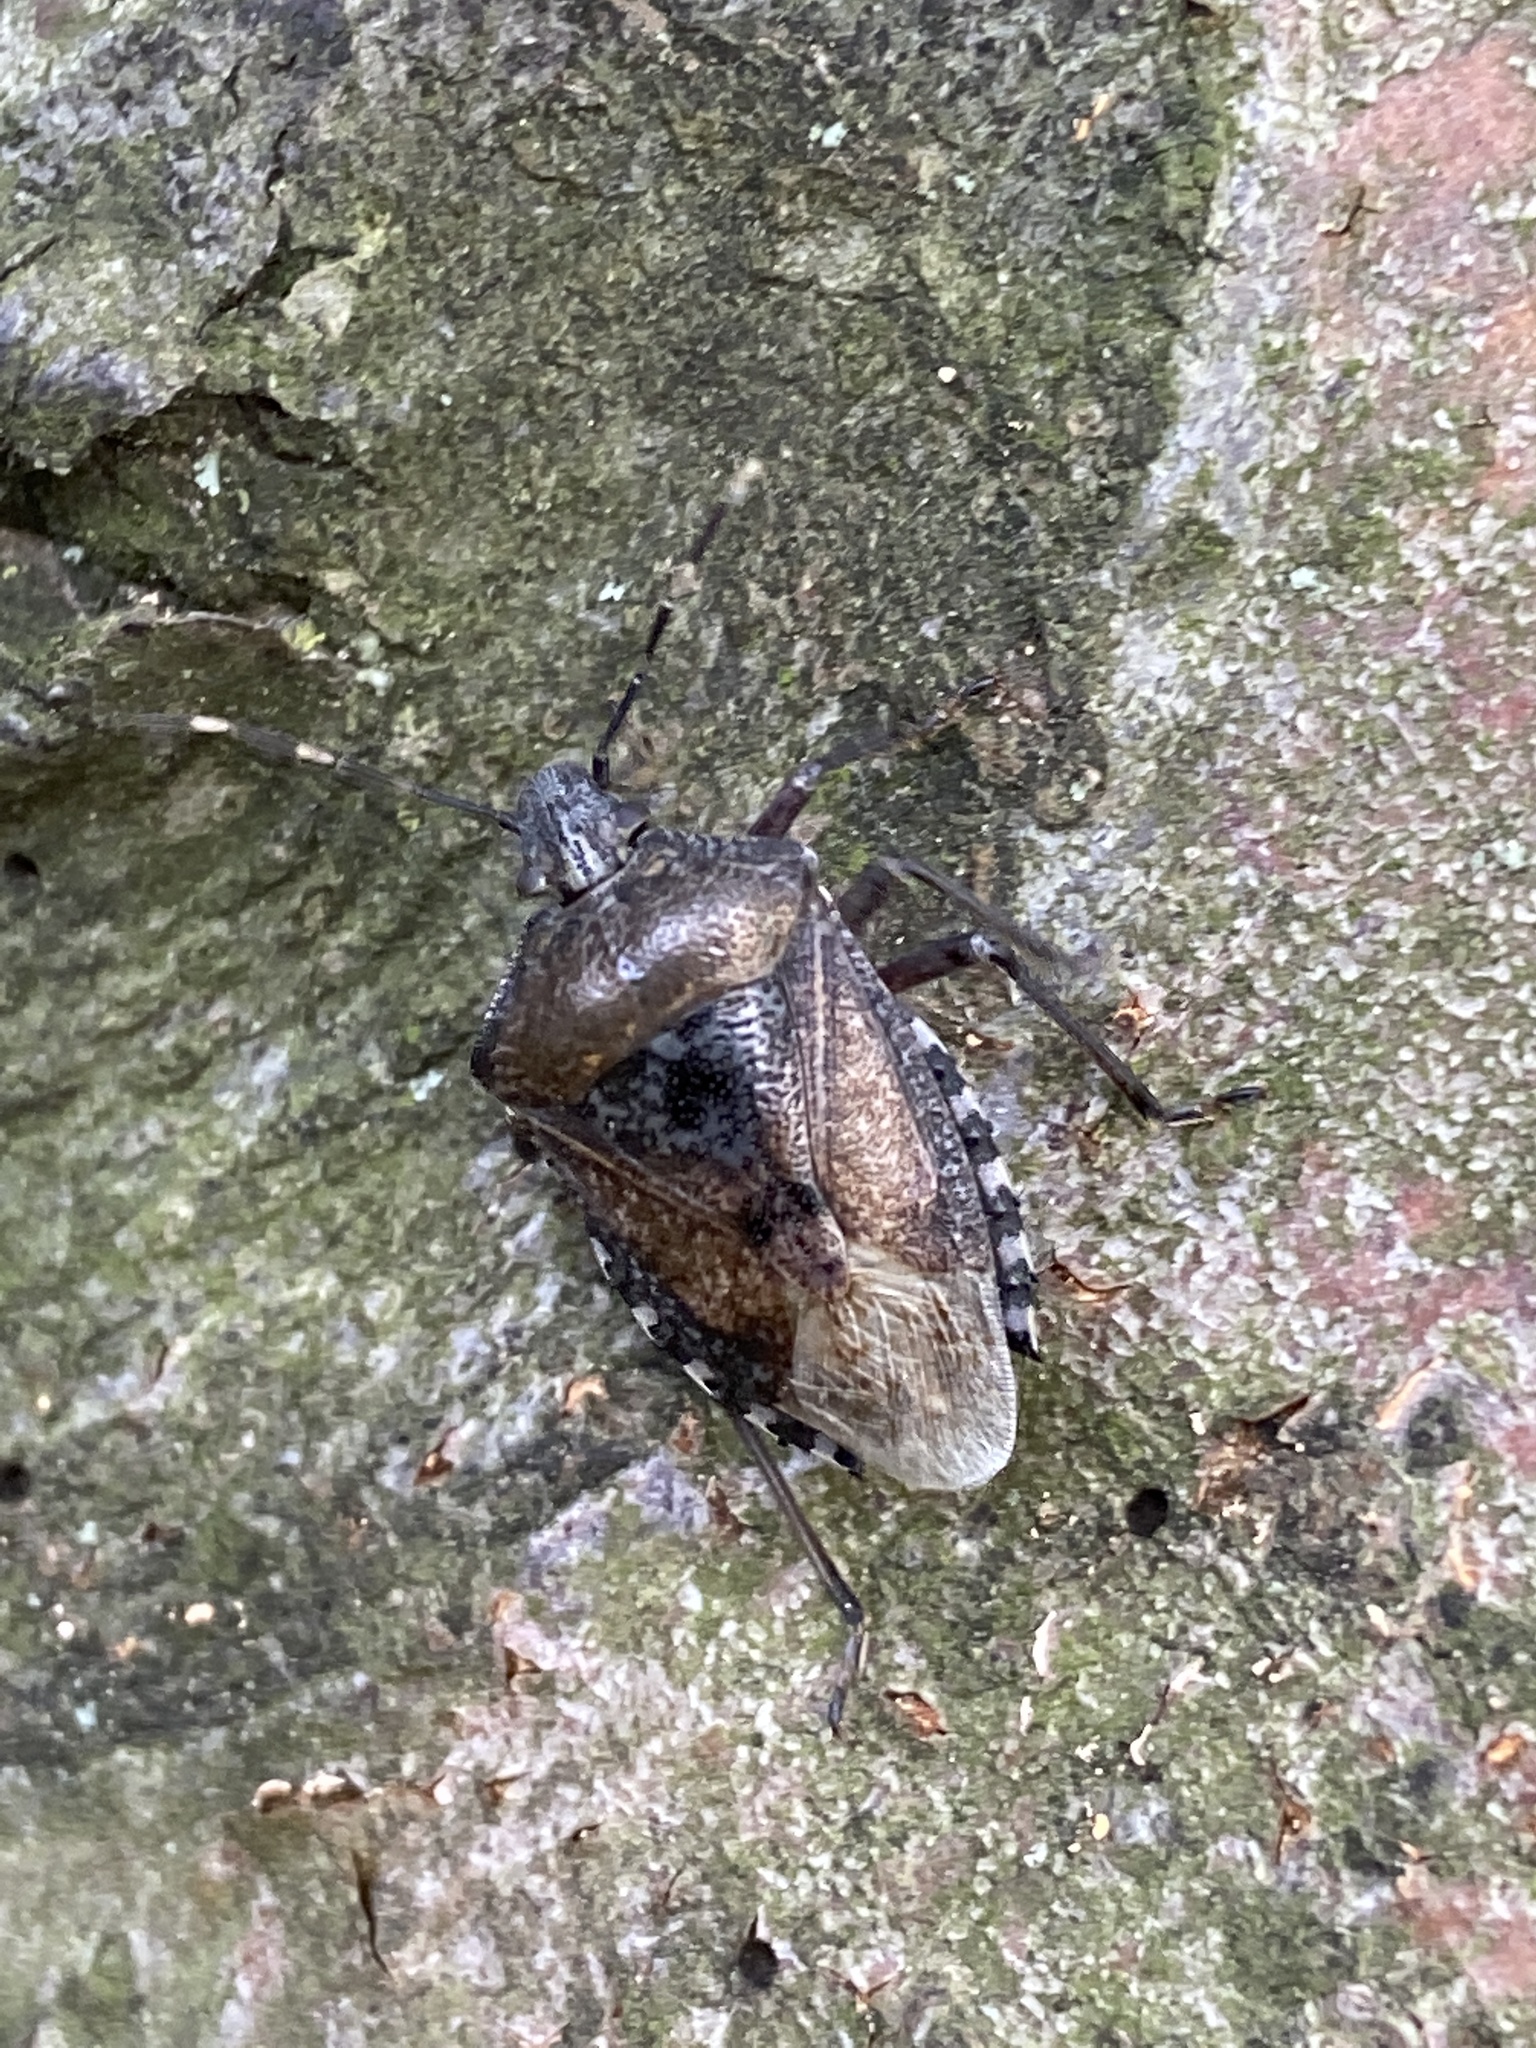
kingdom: Animalia
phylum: Arthropoda
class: Insecta
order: Hemiptera
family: Pentatomidae
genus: Rhaphigaster
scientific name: Rhaphigaster nebulosa
